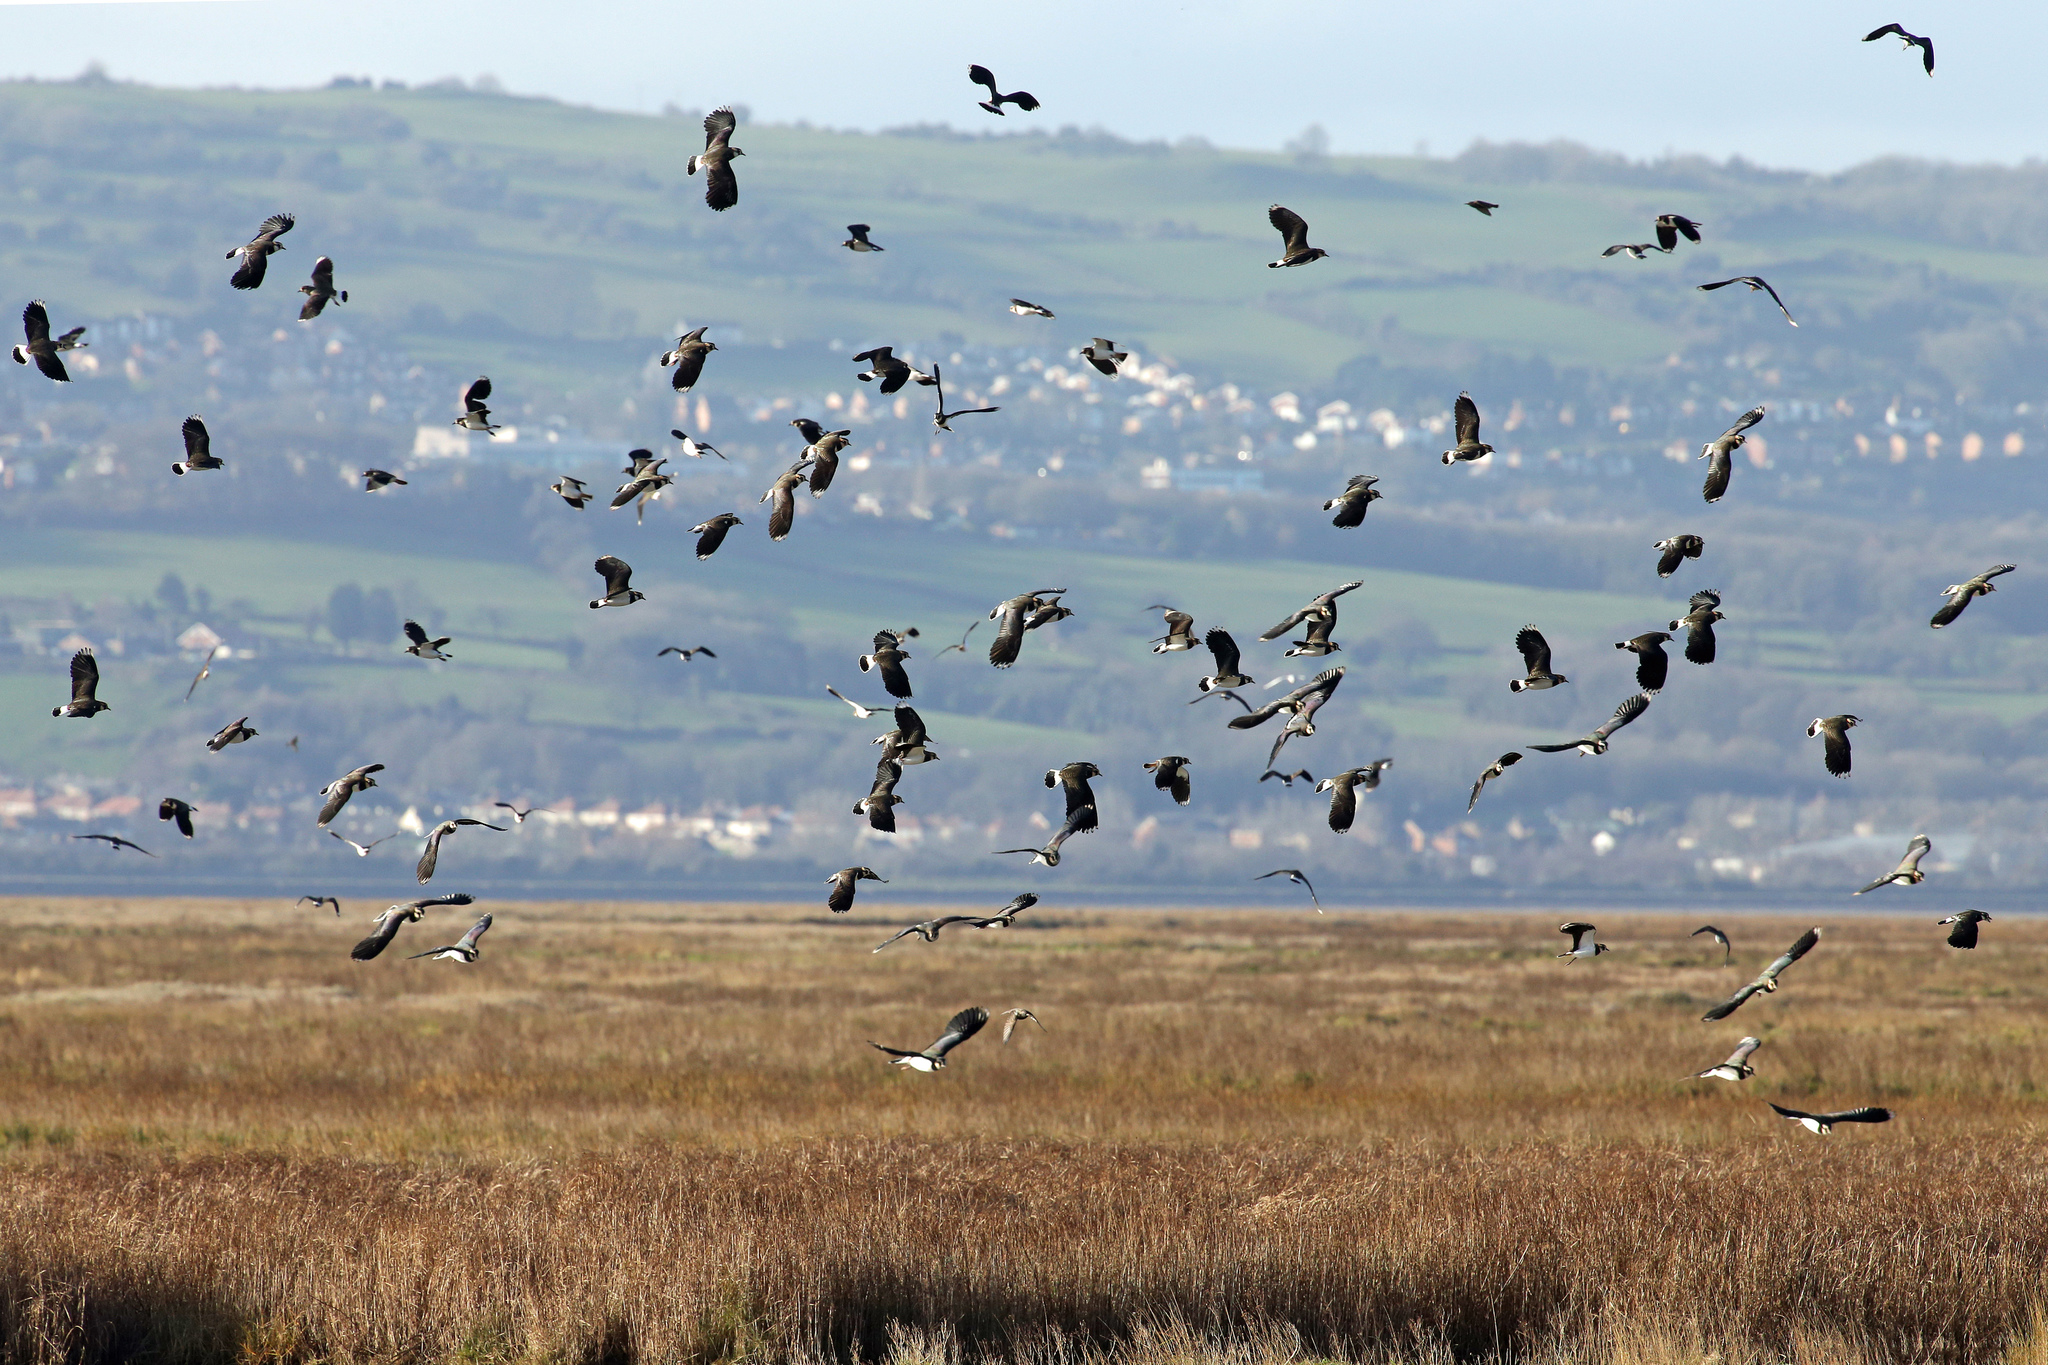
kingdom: Animalia
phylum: Chordata
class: Aves
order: Charadriiformes
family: Charadriidae
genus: Vanellus
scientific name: Vanellus vanellus
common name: Northern lapwing
